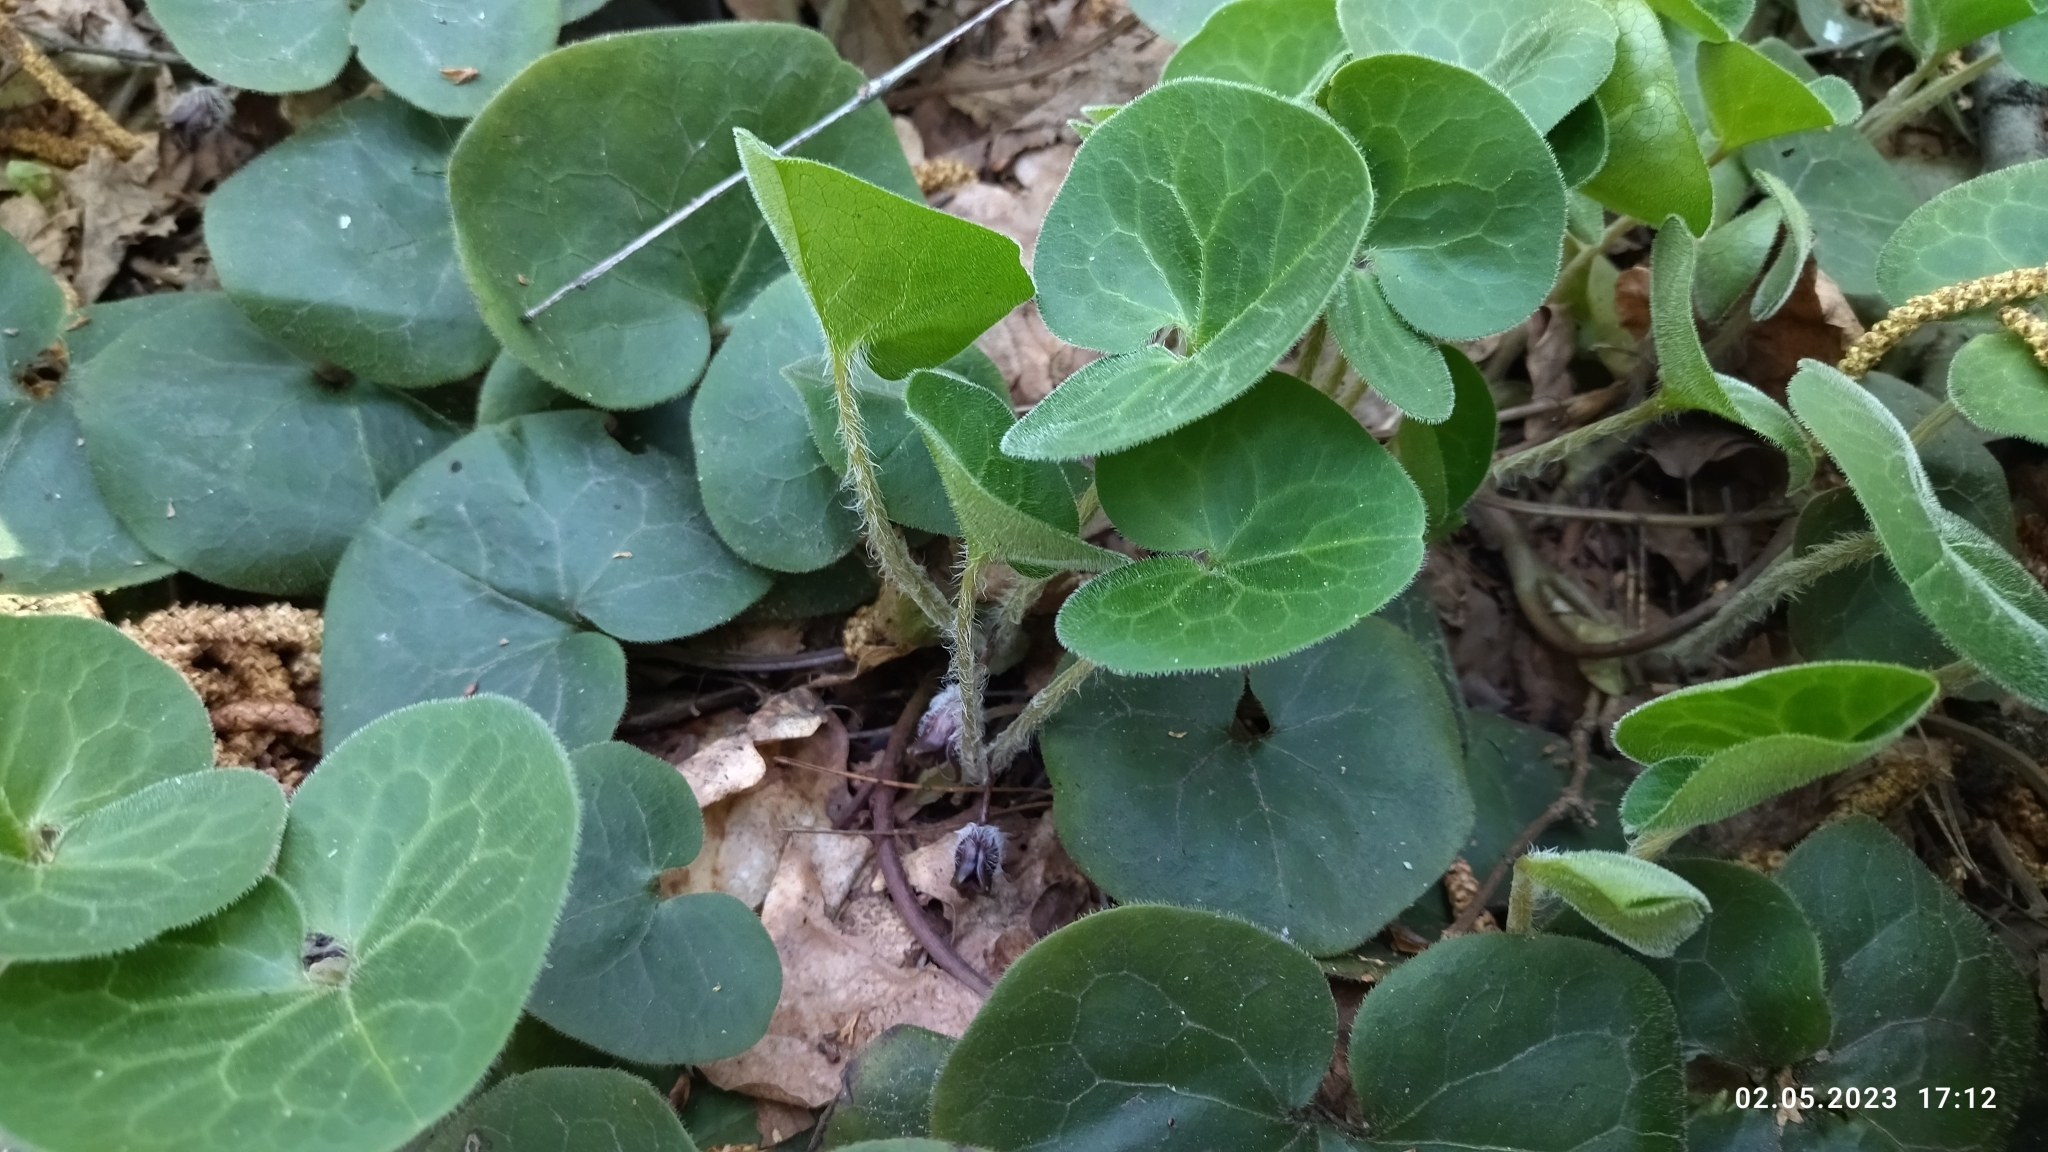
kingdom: Plantae
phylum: Tracheophyta
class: Magnoliopsida
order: Piperales
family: Aristolochiaceae
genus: Asarum
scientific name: Asarum europaeum
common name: Asarabacca
